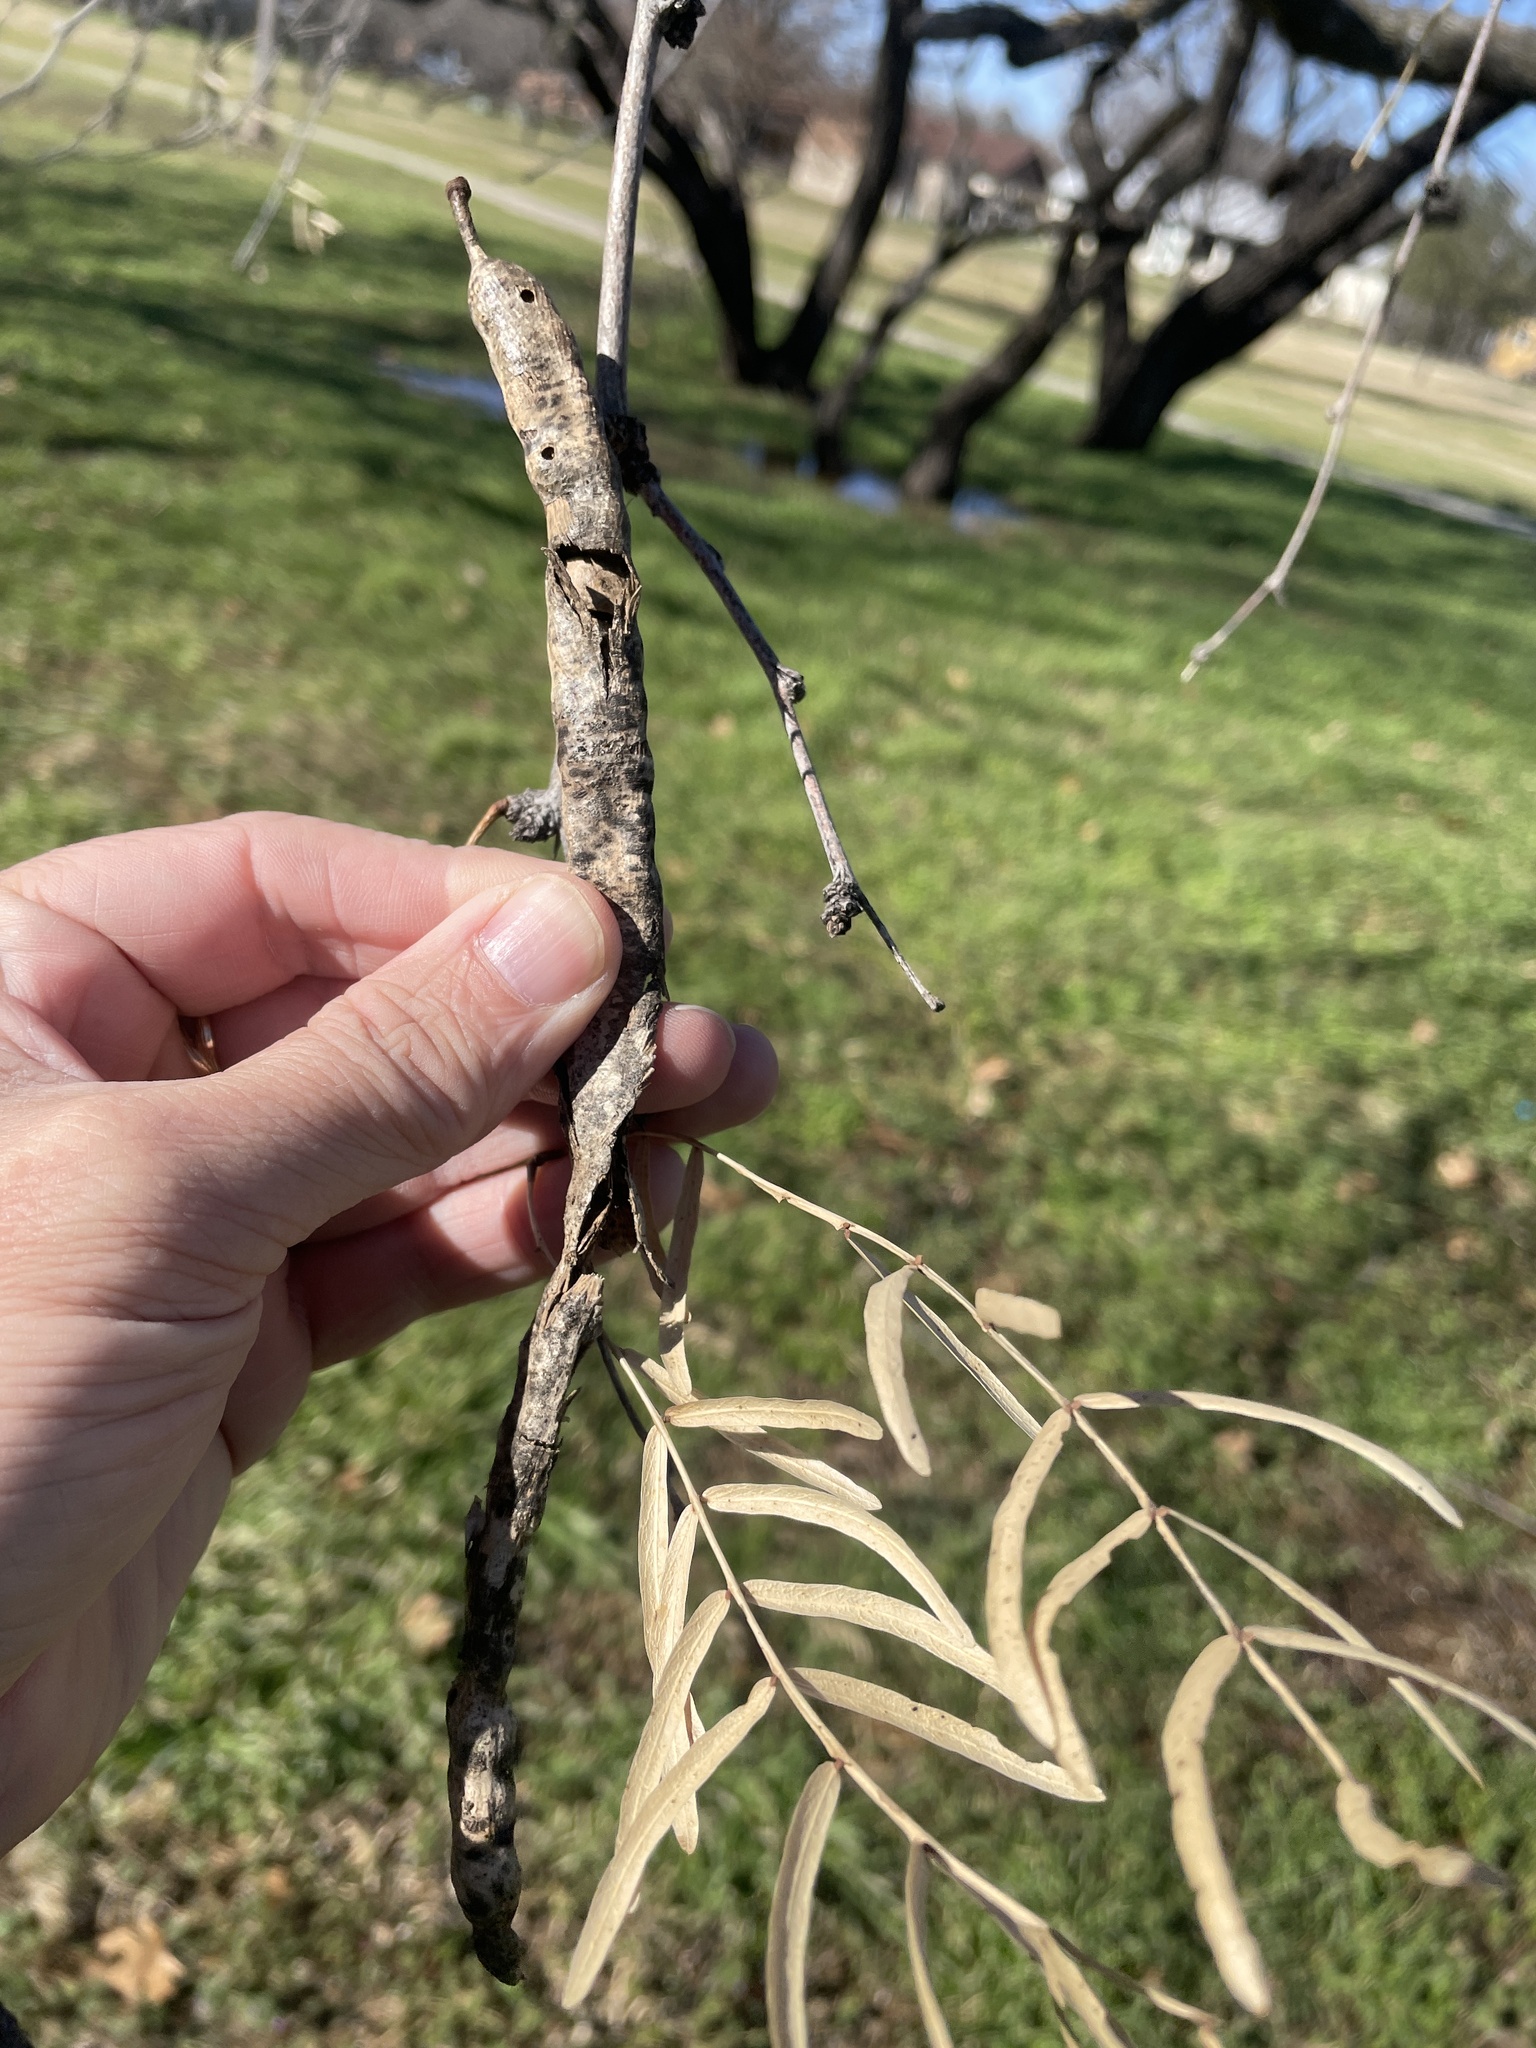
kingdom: Plantae
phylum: Tracheophyta
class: Magnoliopsida
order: Fabales
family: Fabaceae
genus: Prosopis
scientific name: Prosopis glandulosa
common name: Honey mesquite
